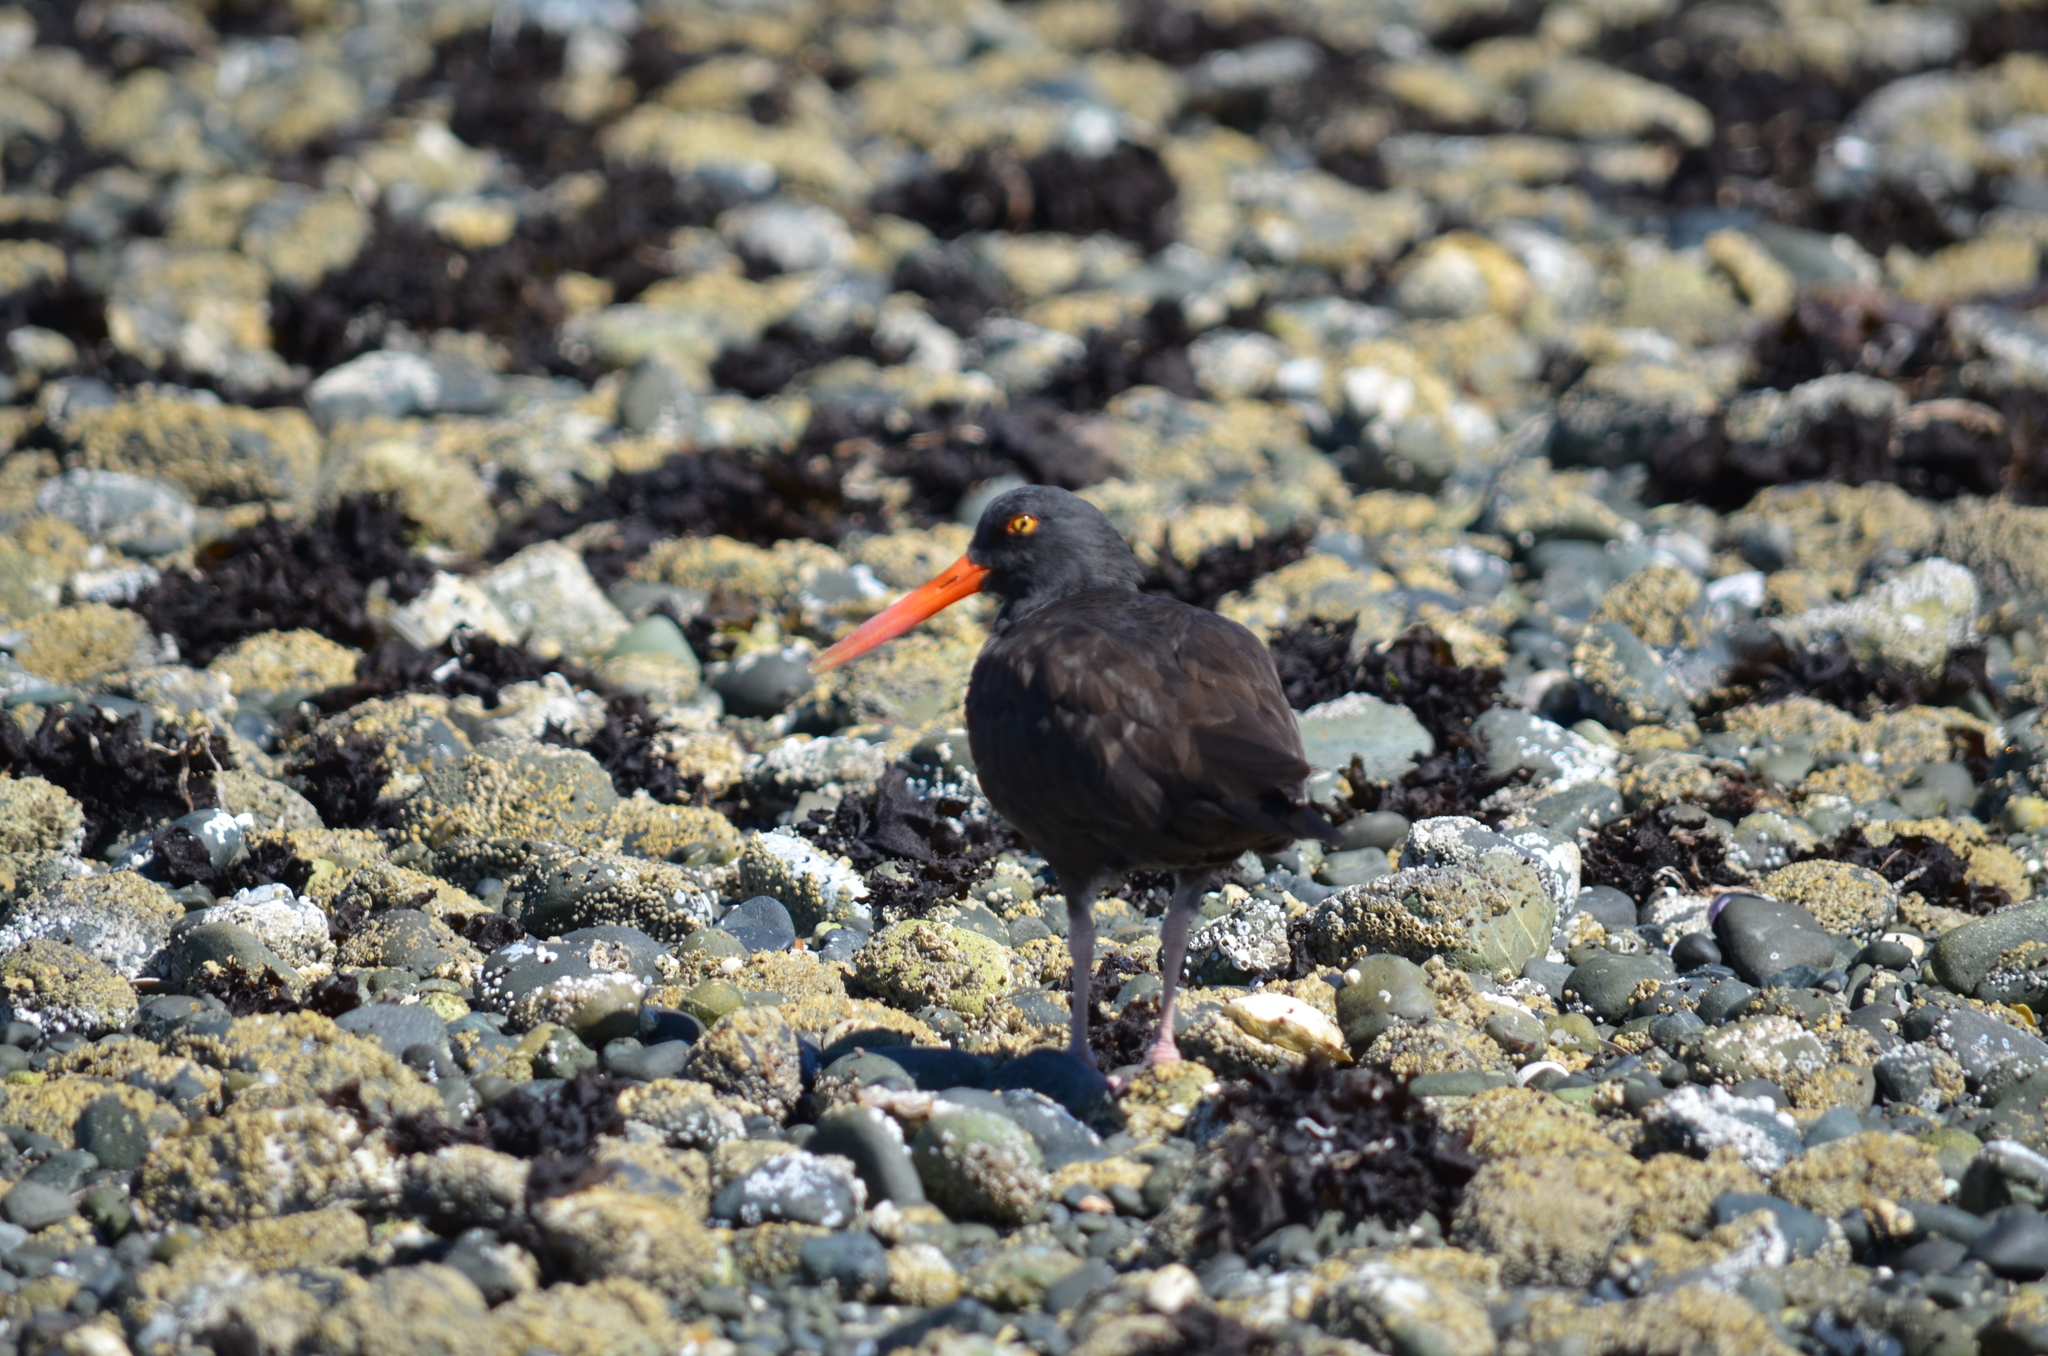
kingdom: Animalia
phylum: Chordata
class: Aves
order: Charadriiformes
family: Haematopodidae
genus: Haematopus
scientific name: Haematopus bachmani
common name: Black oystercatcher
